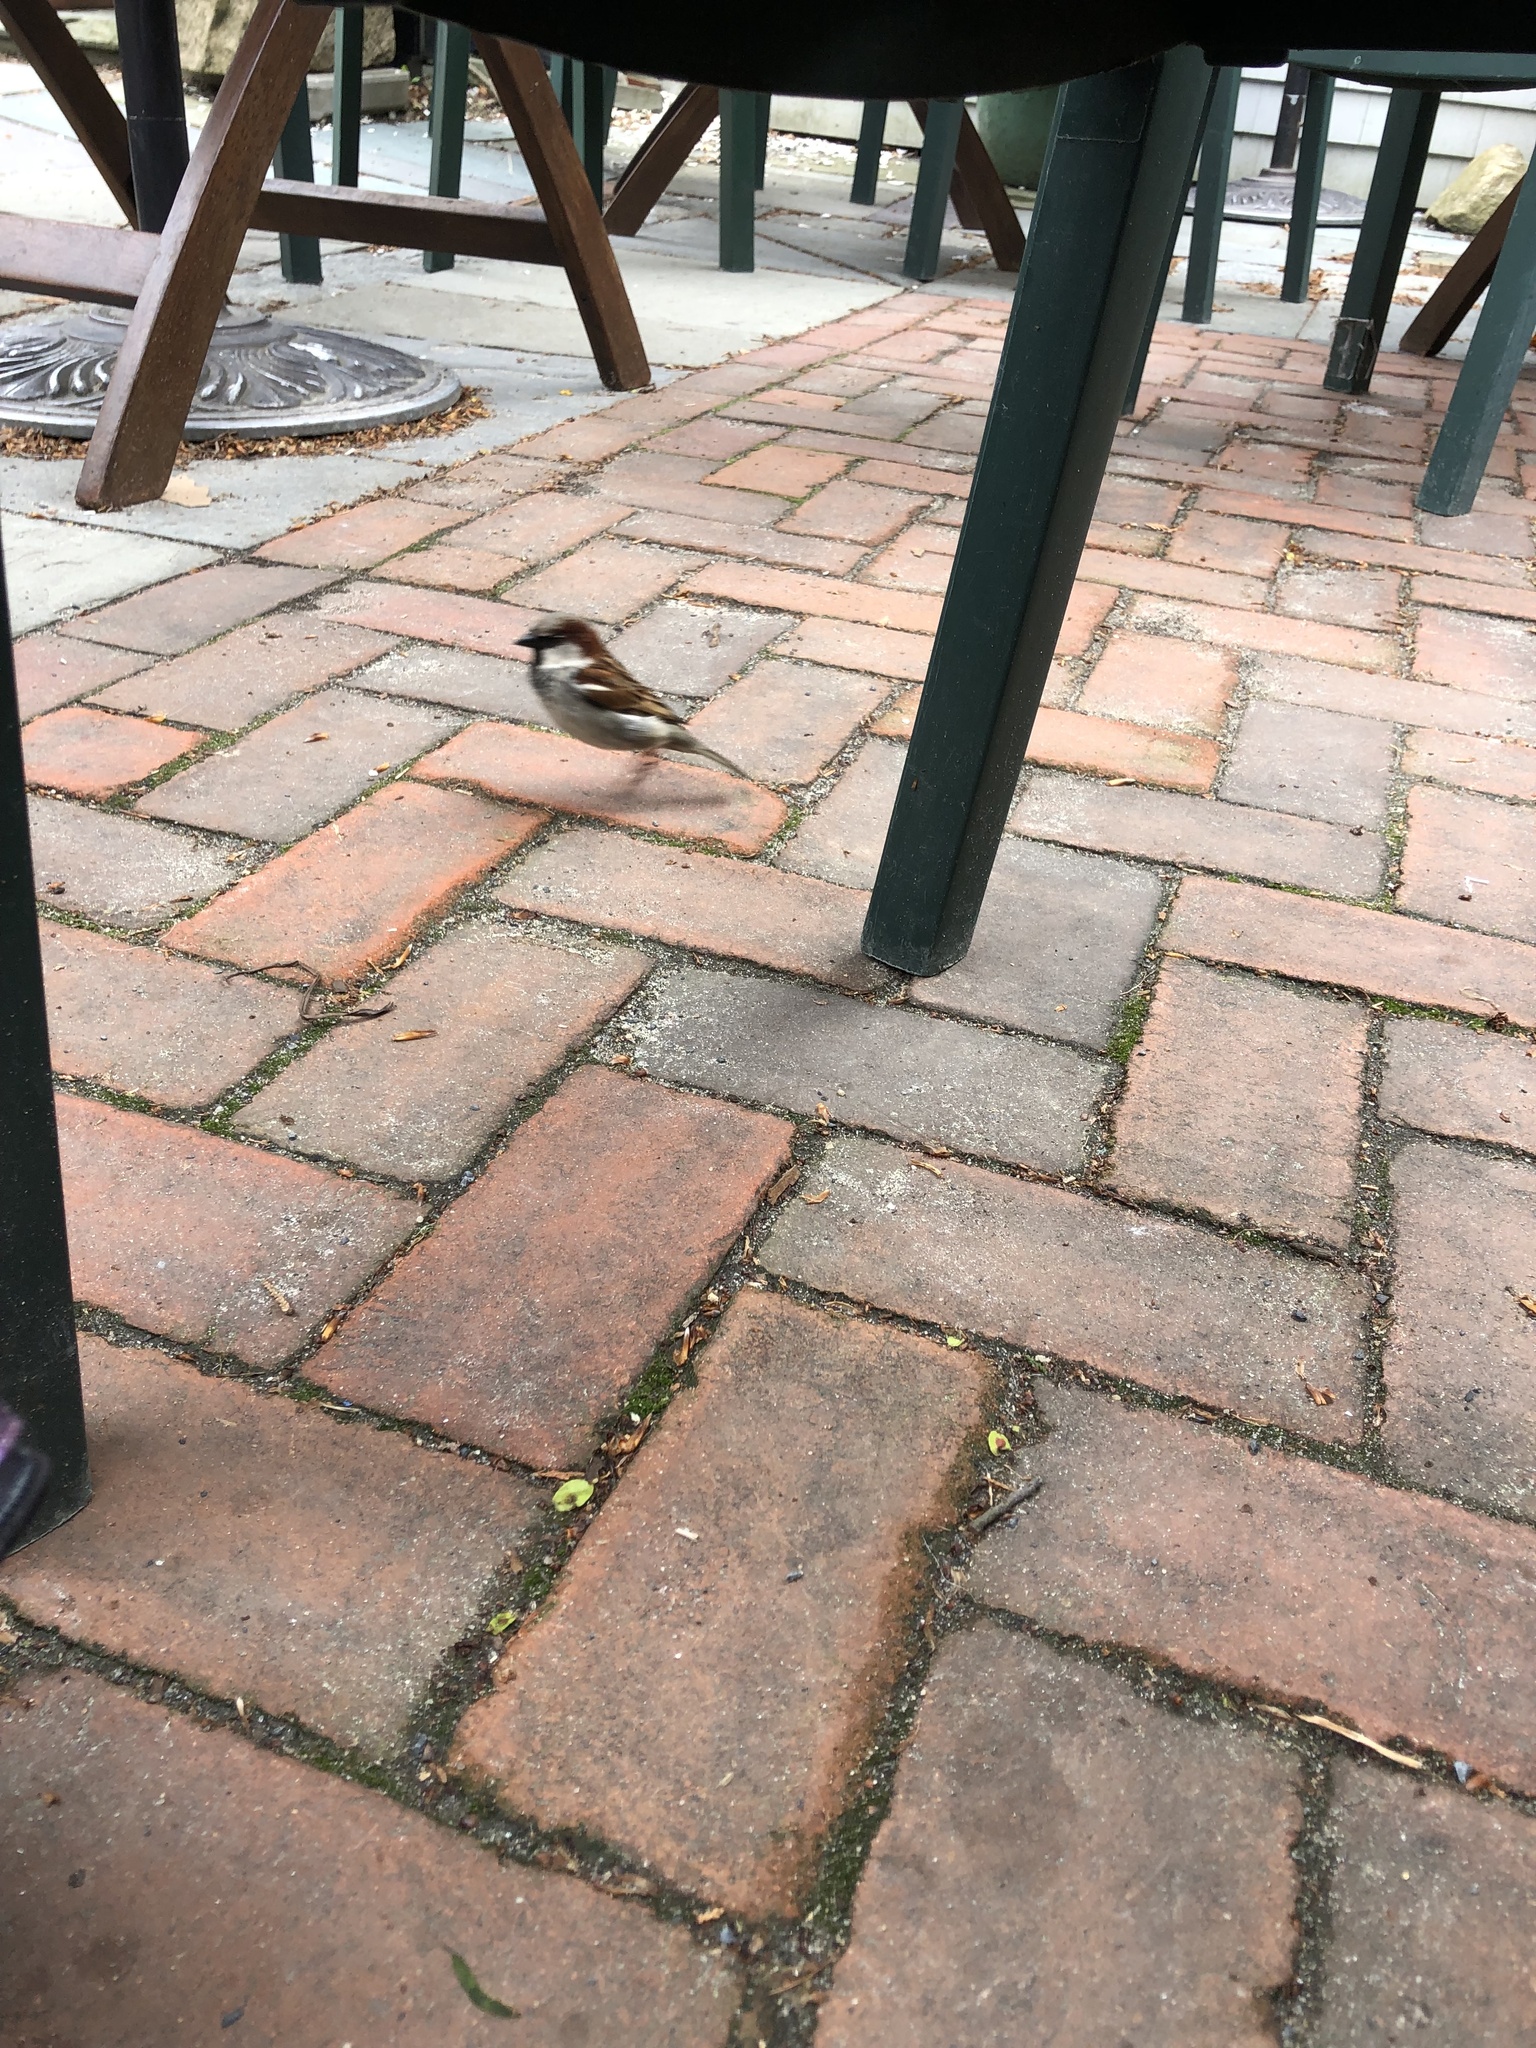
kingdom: Animalia
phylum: Chordata
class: Aves
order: Passeriformes
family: Passeridae
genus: Passer
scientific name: Passer domesticus
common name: House sparrow
